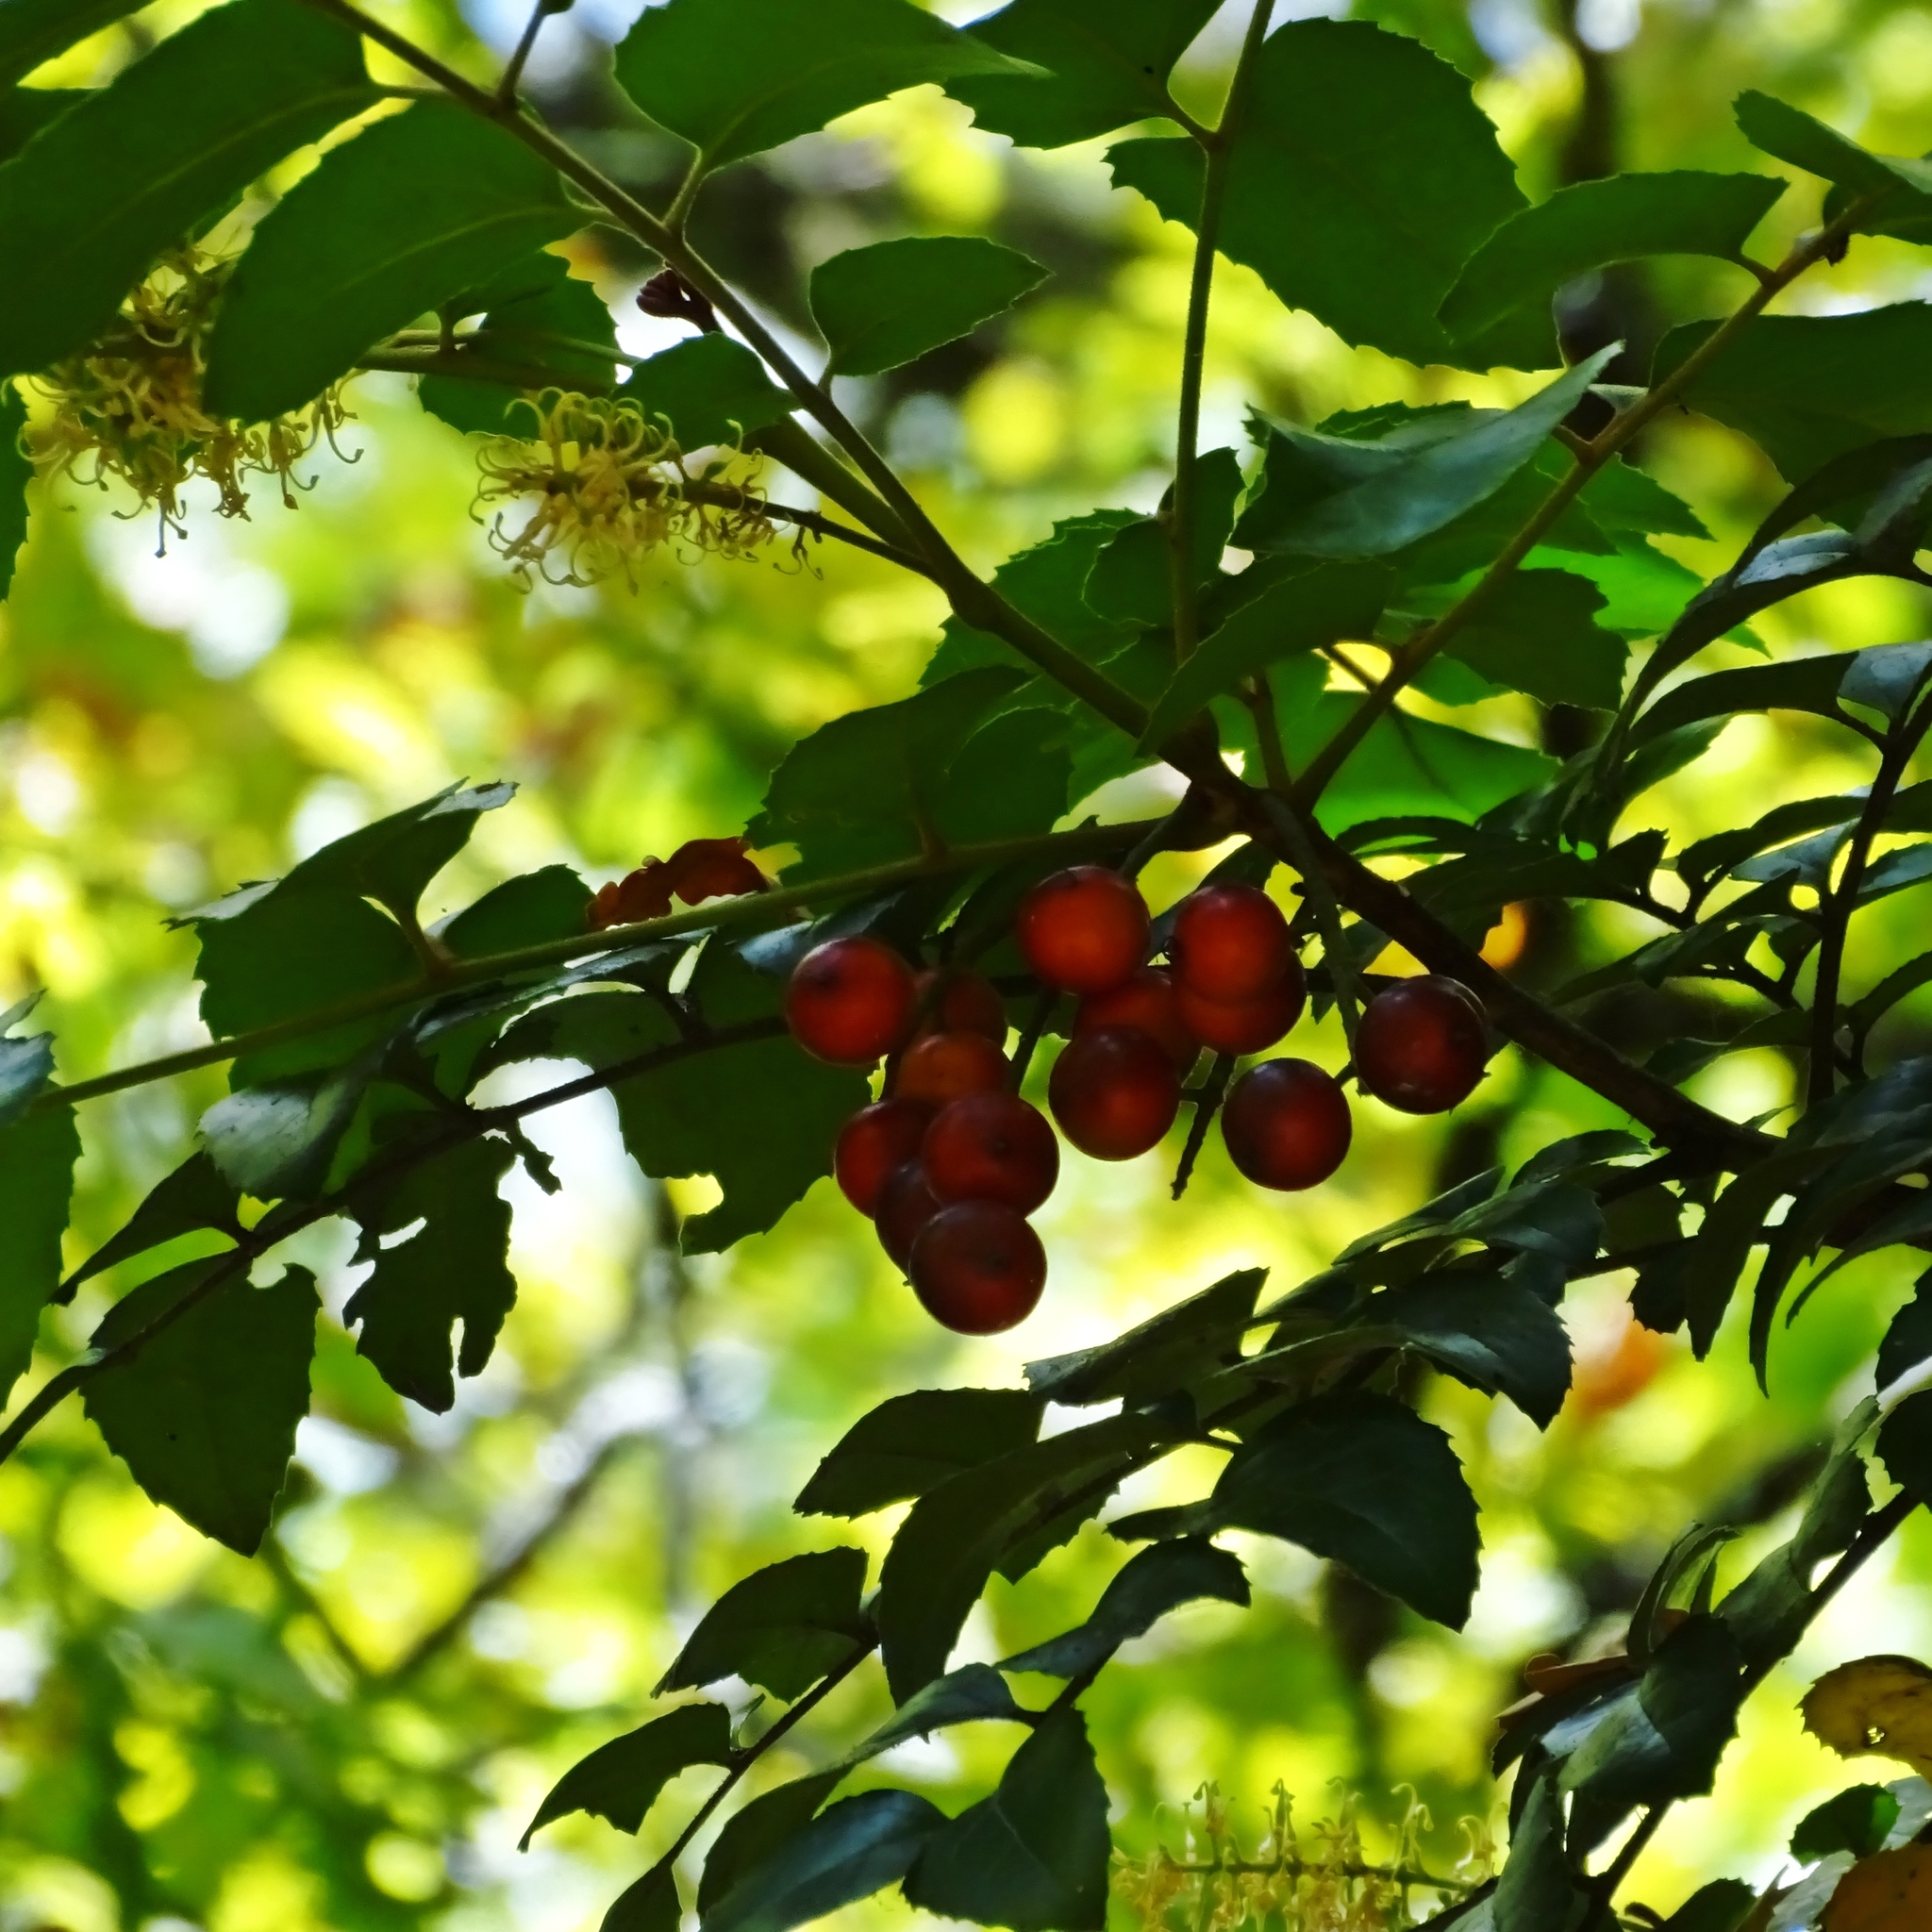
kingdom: Plantae
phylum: Tracheophyta
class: Magnoliopsida
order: Proteales
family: Proteaceae
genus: Gevuina
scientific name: Gevuina avellana
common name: Chilean hazel
